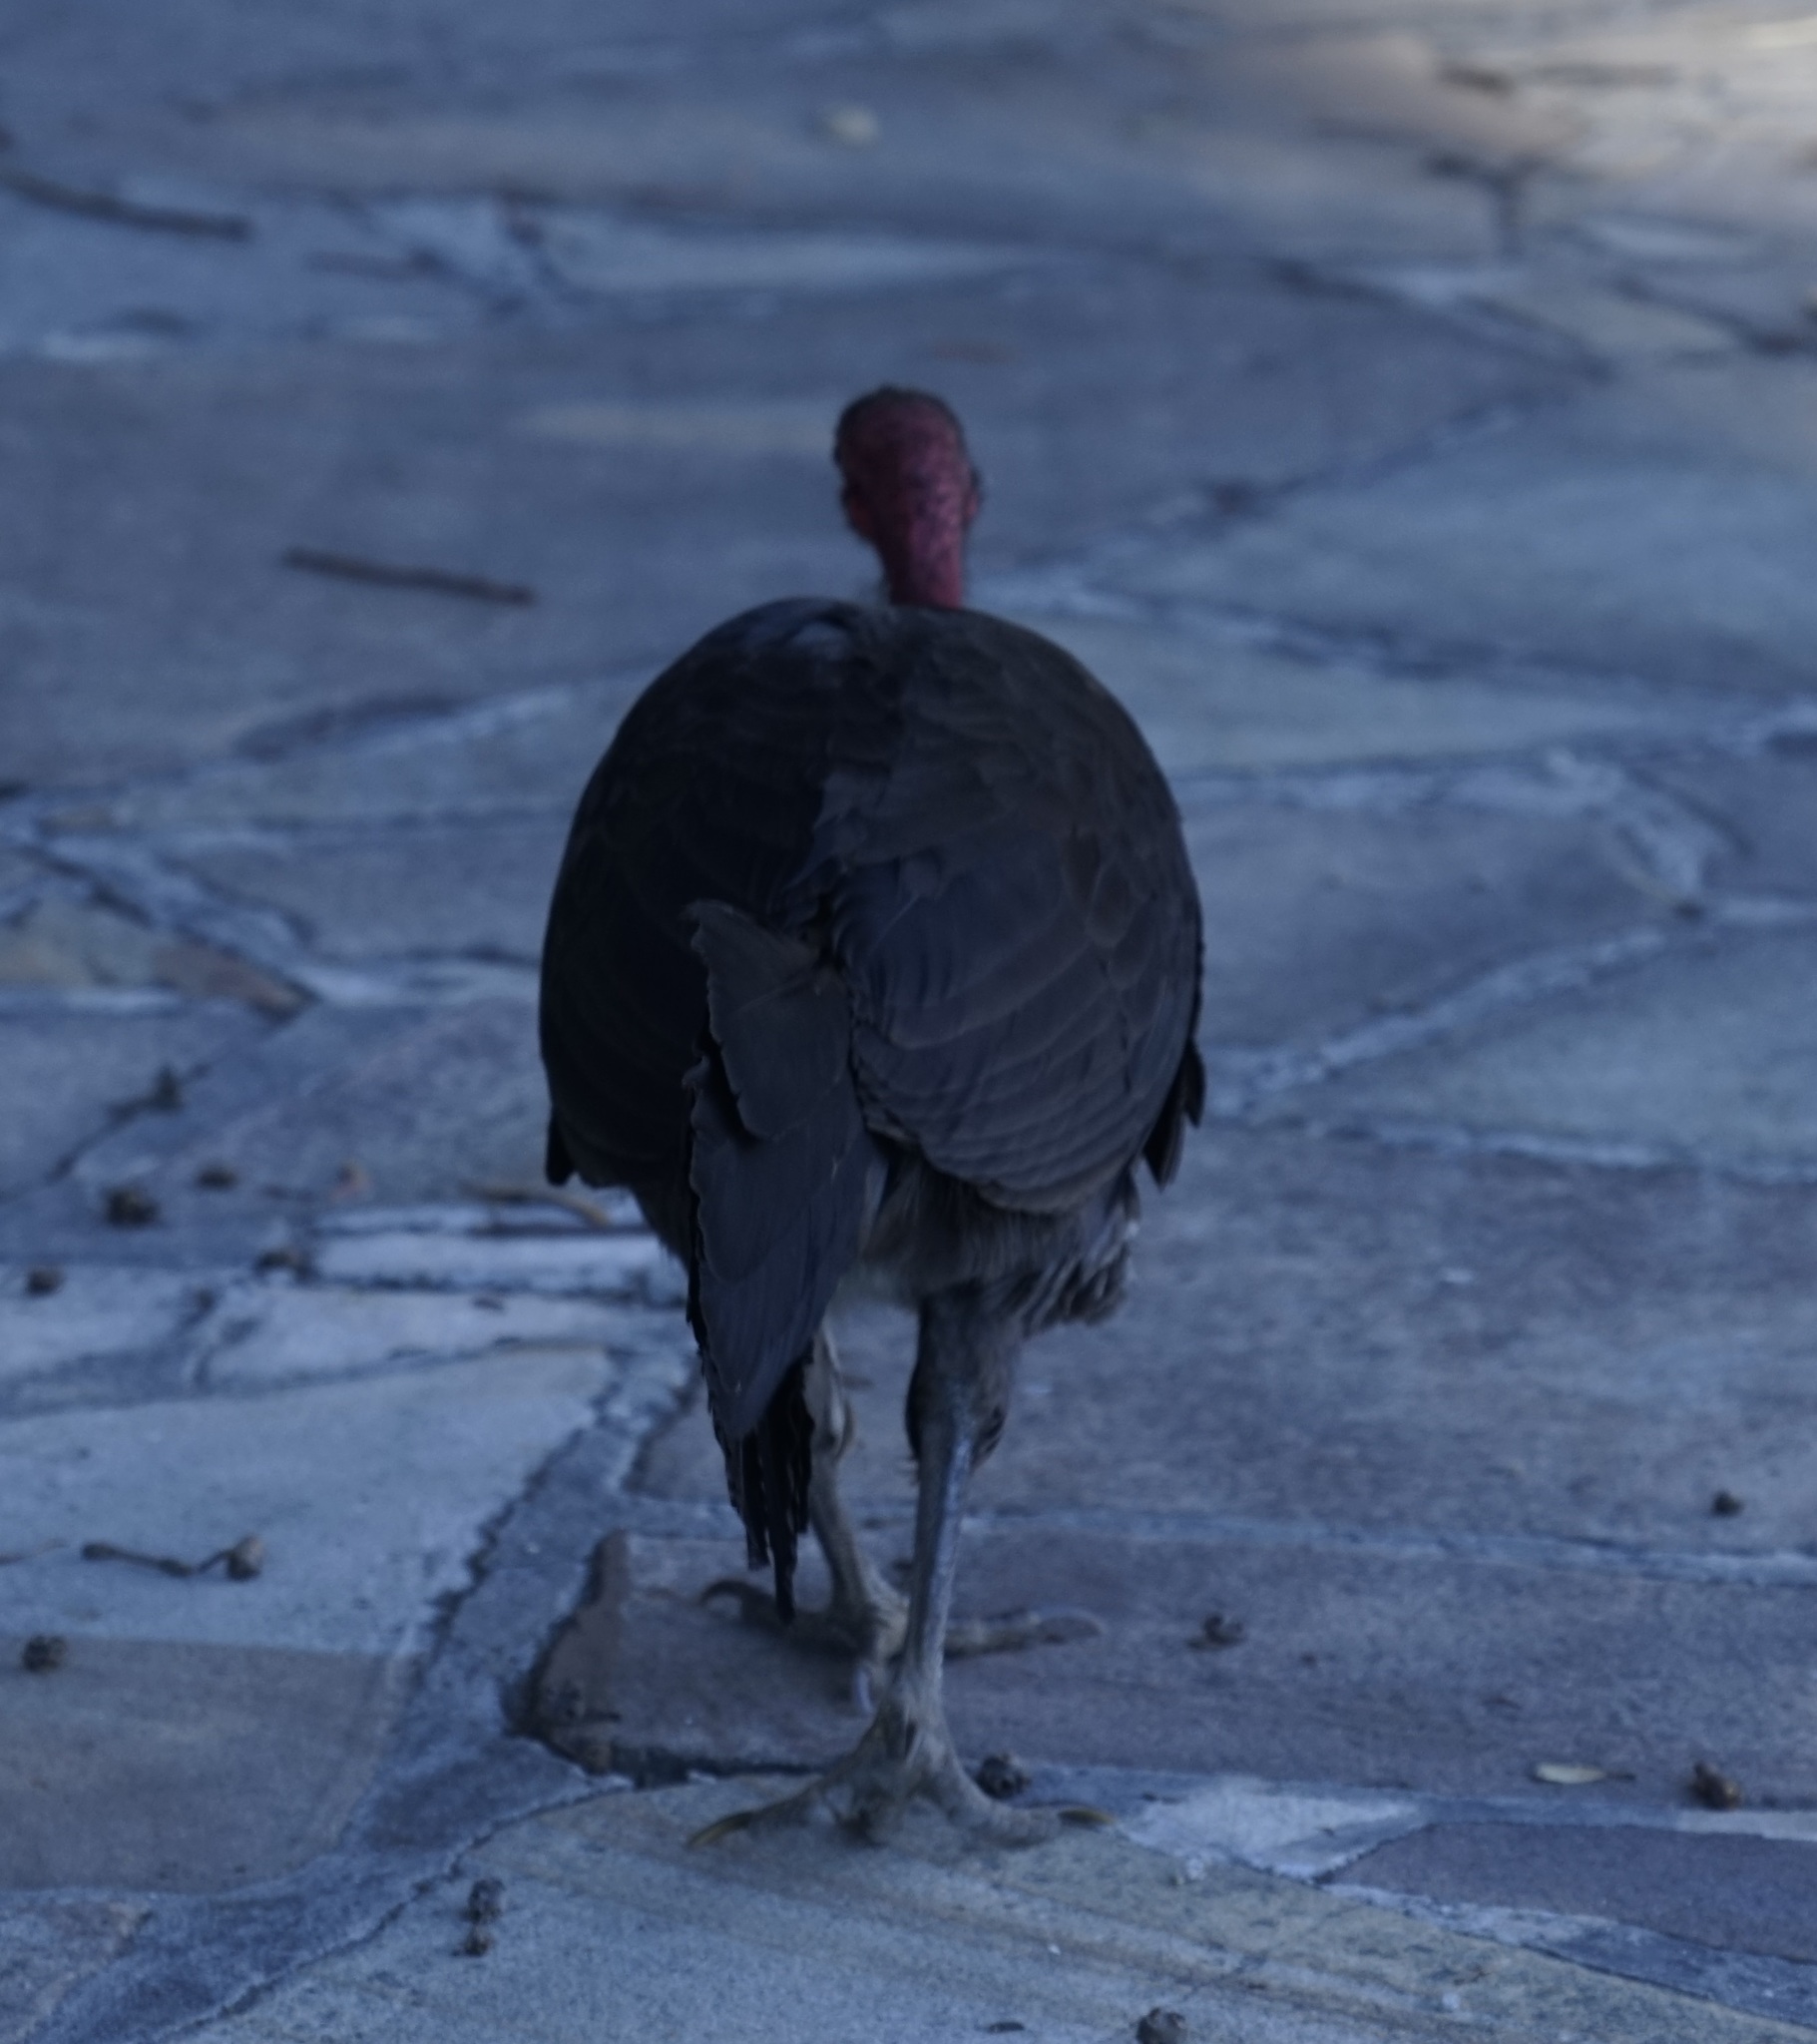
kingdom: Animalia
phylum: Chordata
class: Aves
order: Galliformes
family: Megapodiidae
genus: Alectura
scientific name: Alectura lathami
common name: Australian brushturkey
